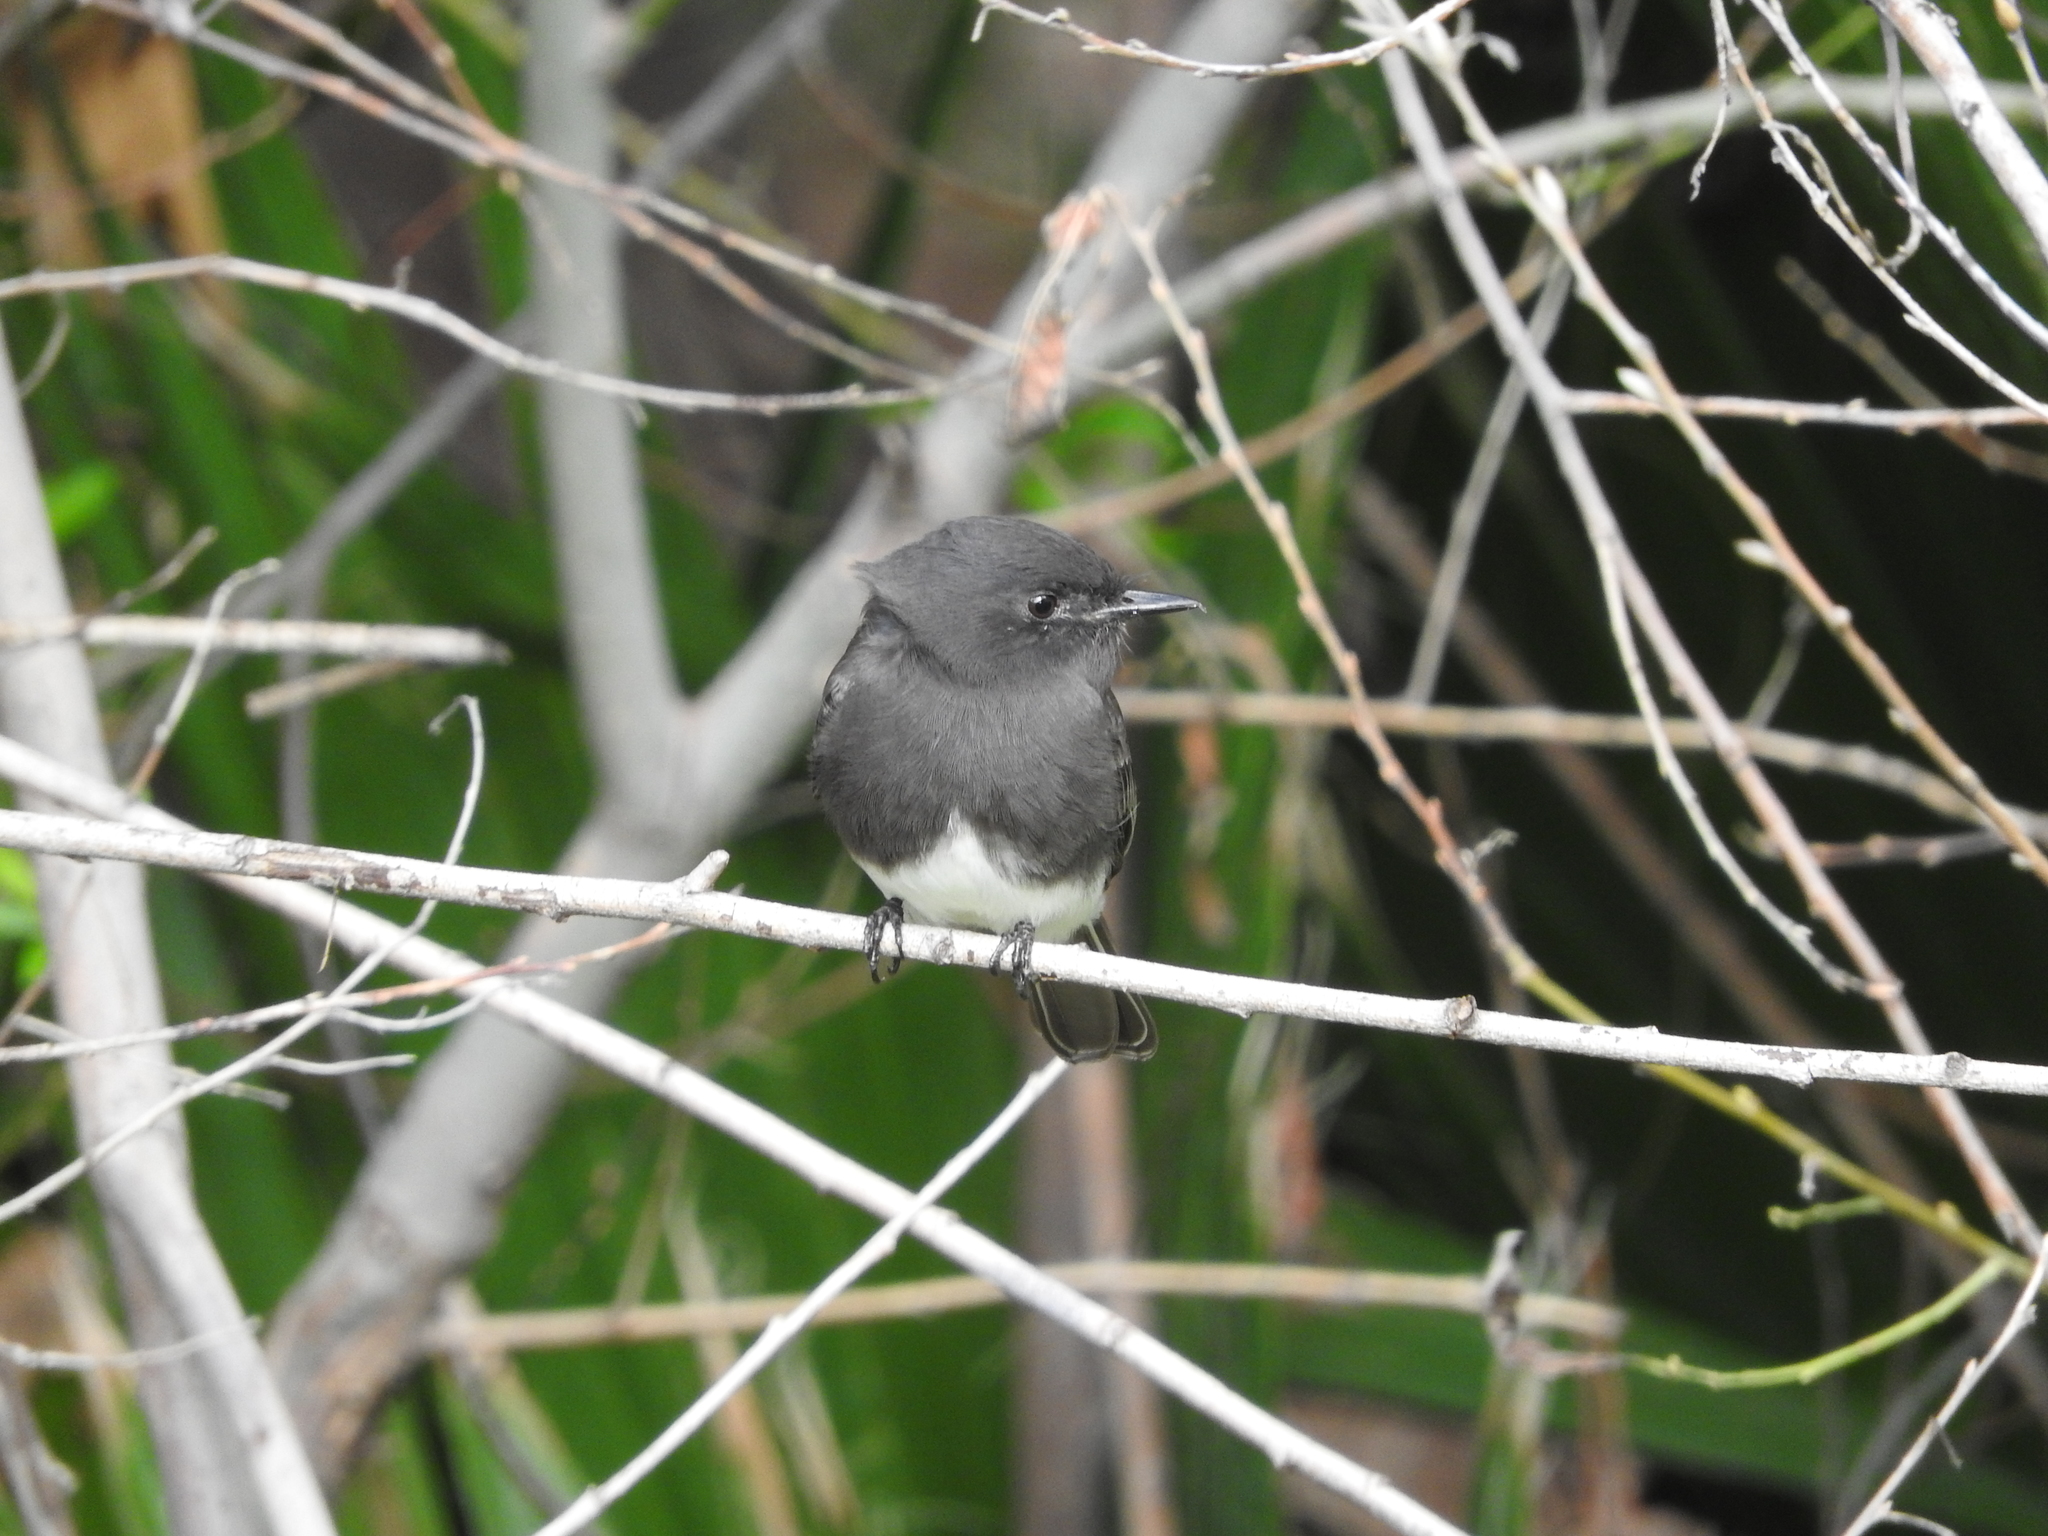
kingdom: Animalia
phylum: Chordata
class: Aves
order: Passeriformes
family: Tyrannidae
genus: Sayornis
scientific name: Sayornis nigricans
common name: Black phoebe
